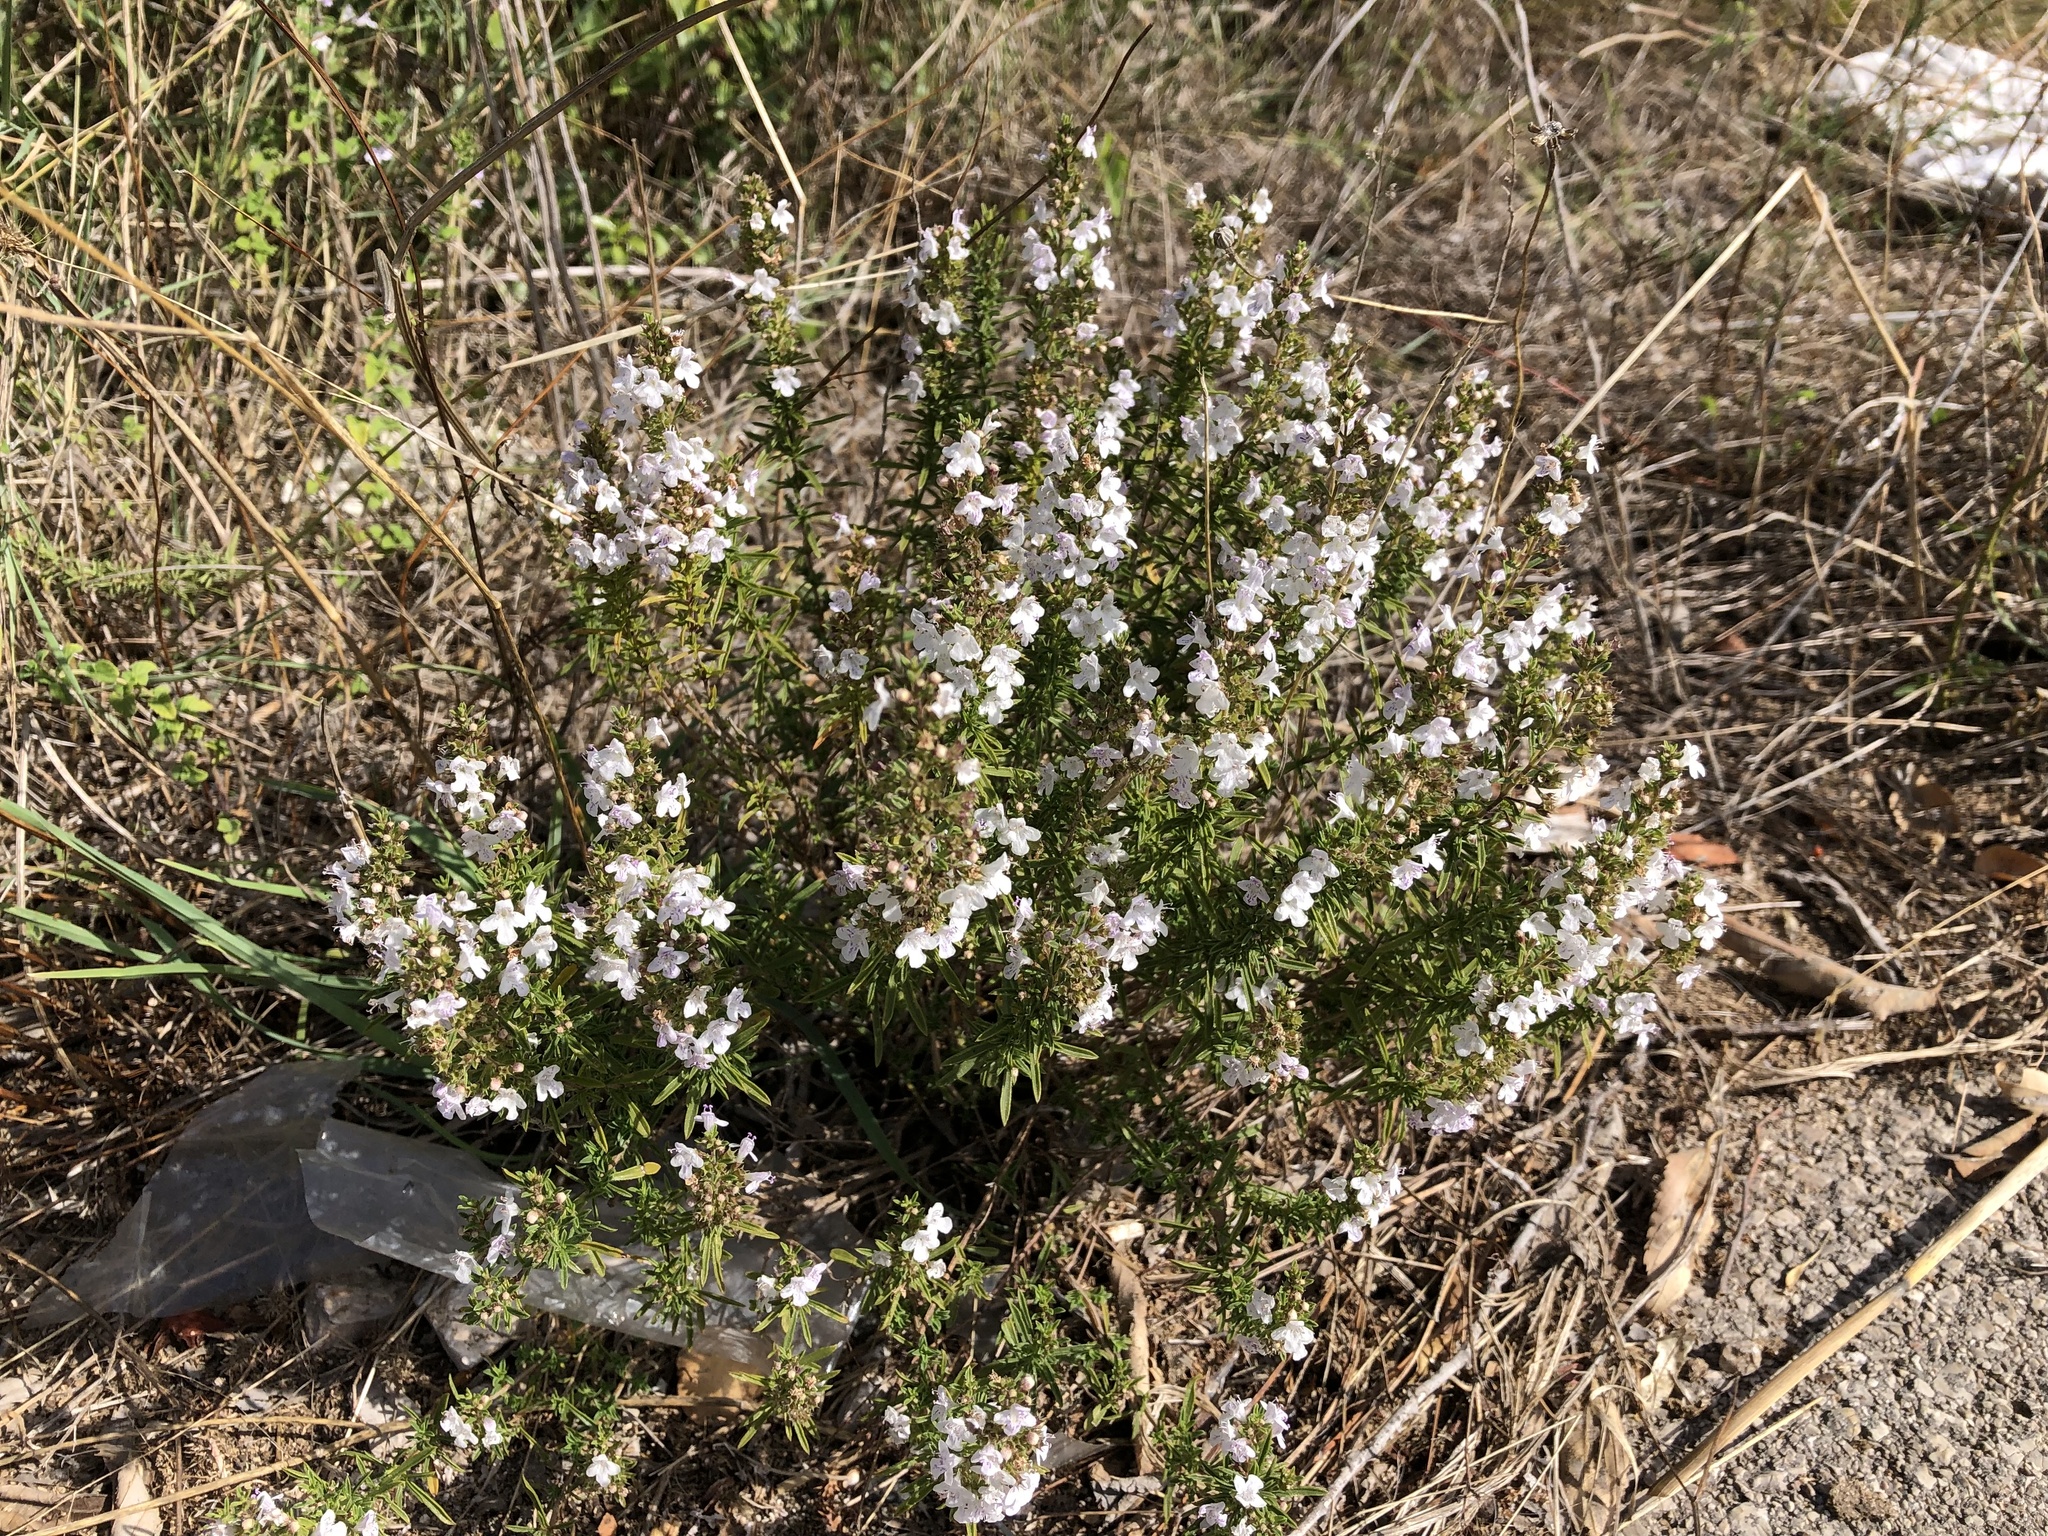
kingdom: Plantae
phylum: Tracheophyta
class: Magnoliopsida
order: Lamiales
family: Lamiaceae
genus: Satureja
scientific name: Satureja montana
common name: Winter savory
